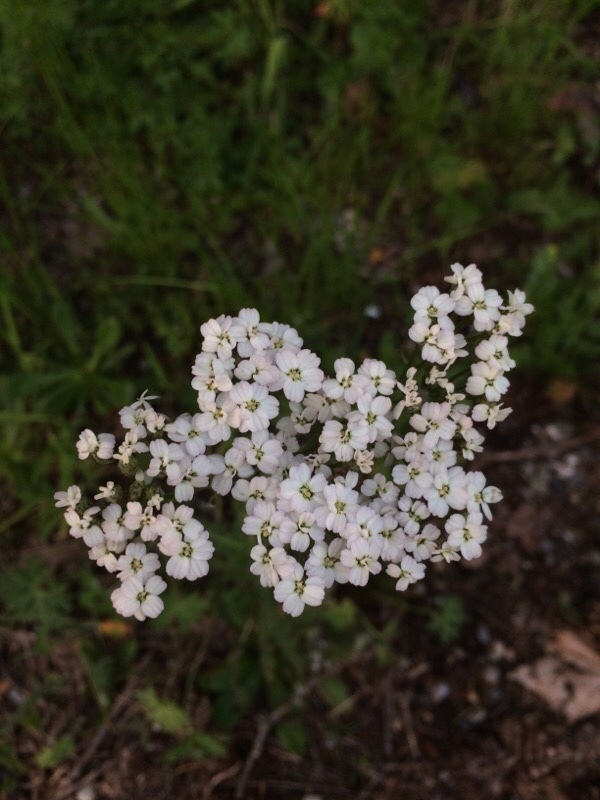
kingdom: Plantae
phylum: Tracheophyta
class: Magnoliopsida
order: Asterales
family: Asteraceae
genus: Achillea
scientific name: Achillea millefolium
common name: Yarrow
